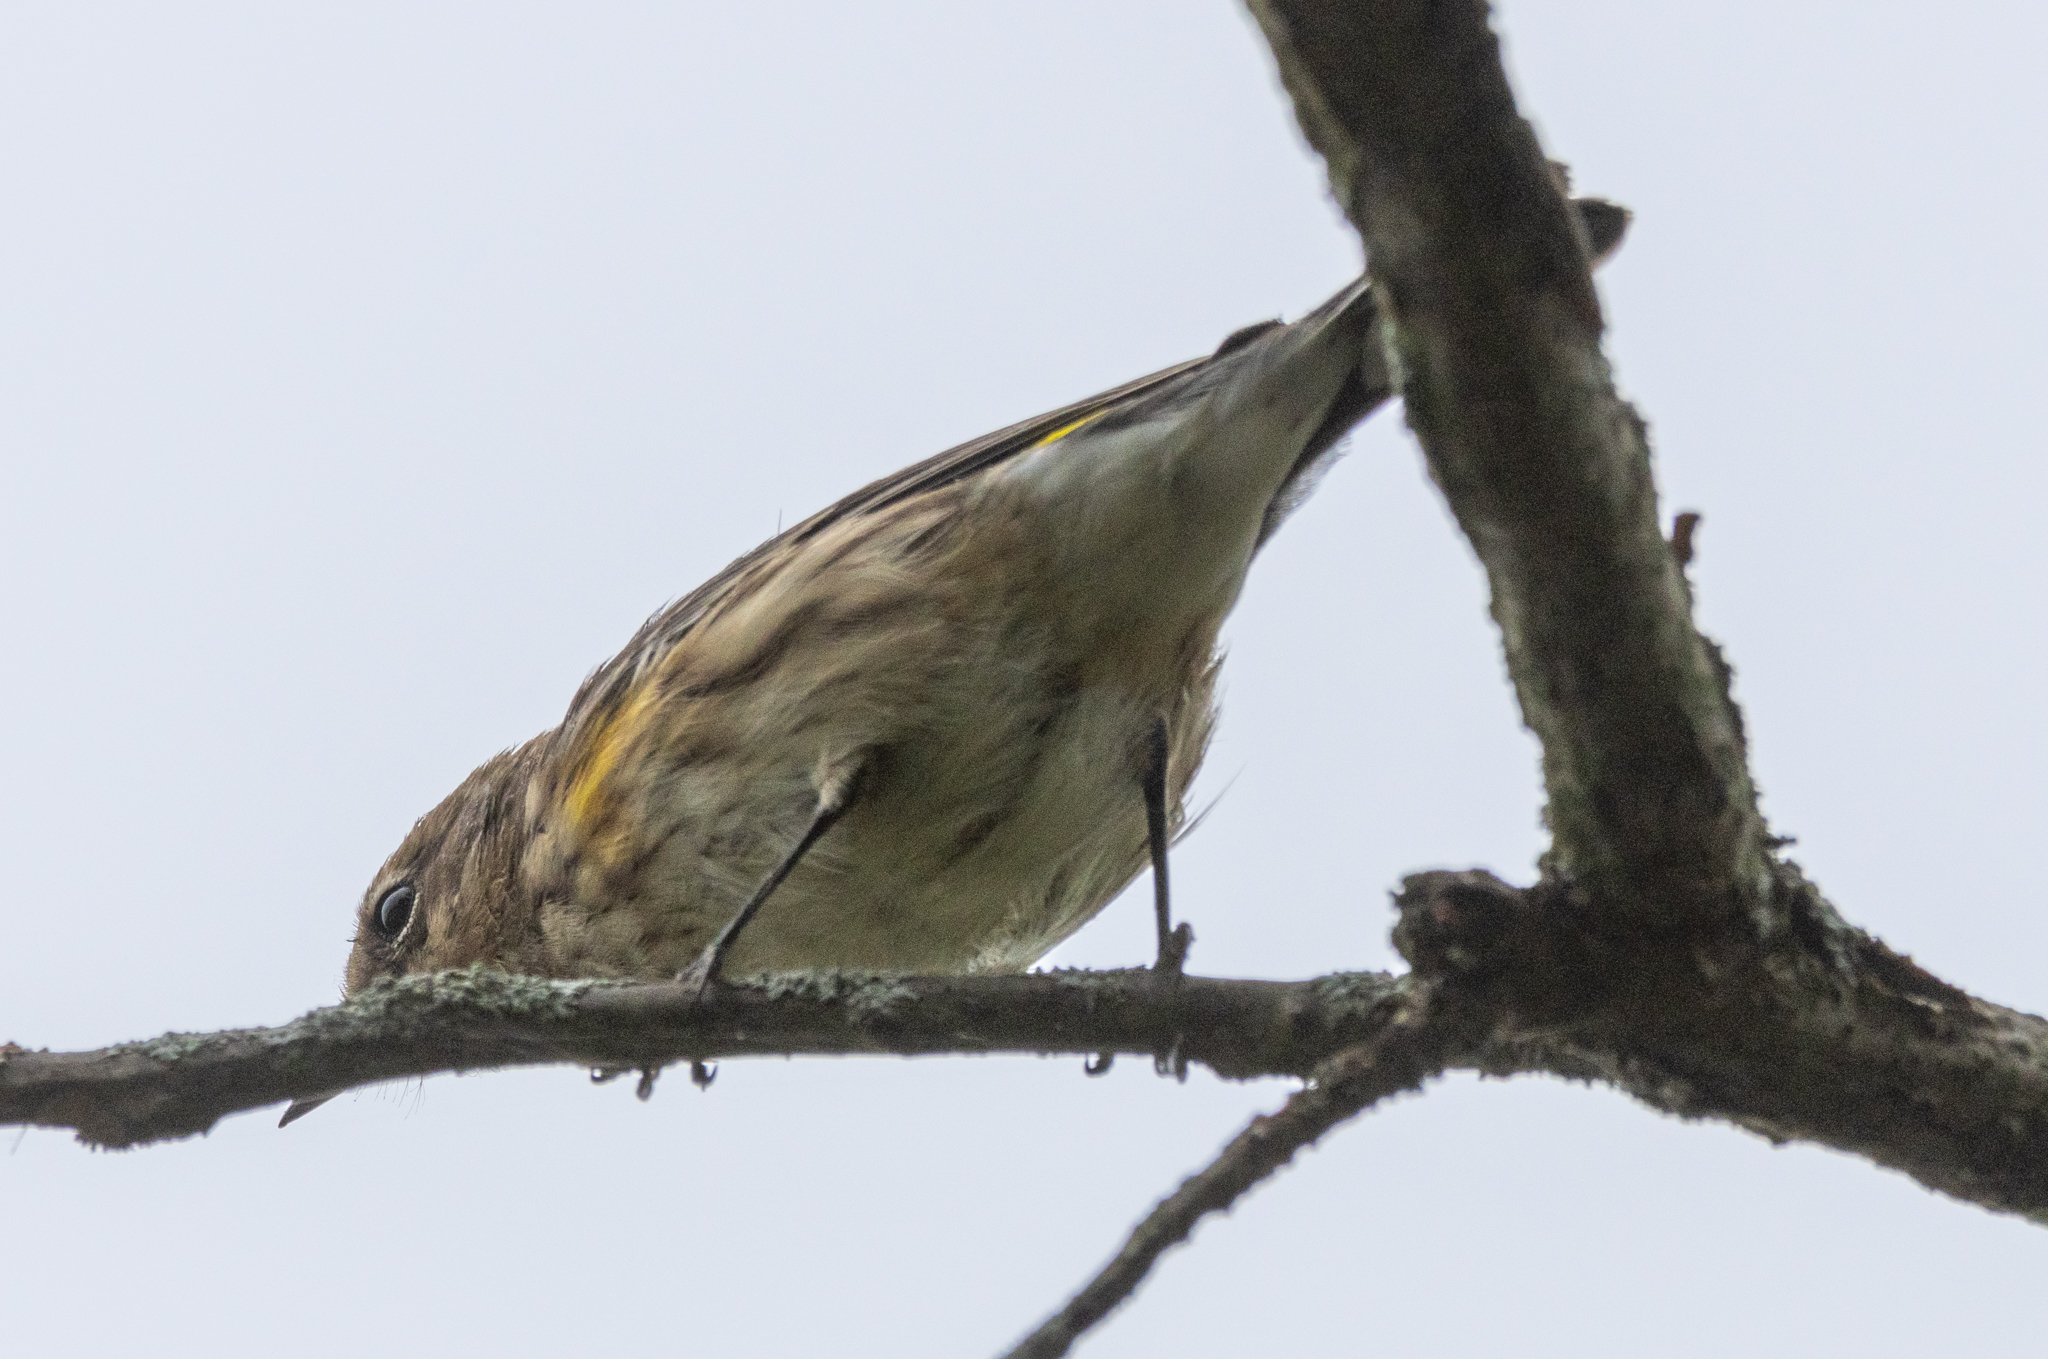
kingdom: Animalia
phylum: Chordata
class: Aves
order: Passeriformes
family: Parulidae
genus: Setophaga
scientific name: Setophaga coronata
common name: Myrtle warbler
